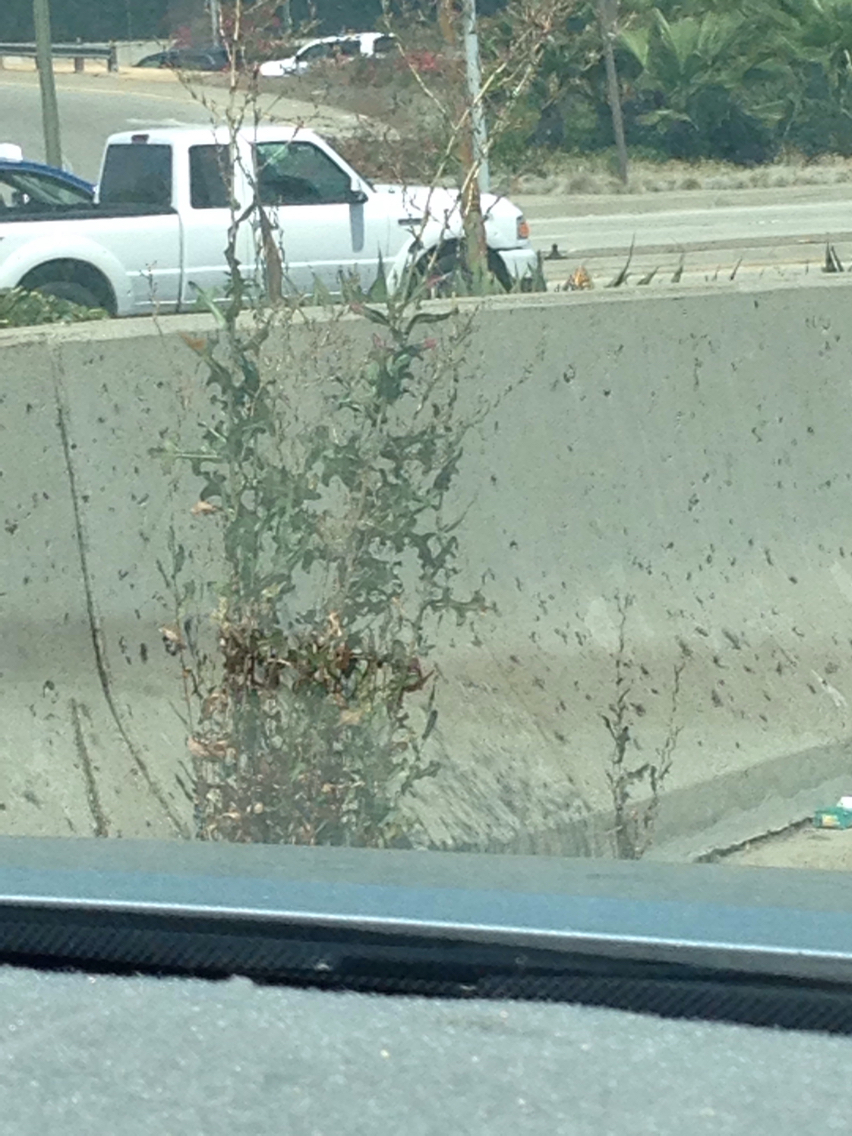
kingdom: Plantae
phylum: Tracheophyta
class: Magnoliopsida
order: Asterales
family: Asteraceae
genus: Lactuca
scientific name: Lactuca serriola
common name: Prickly lettuce
